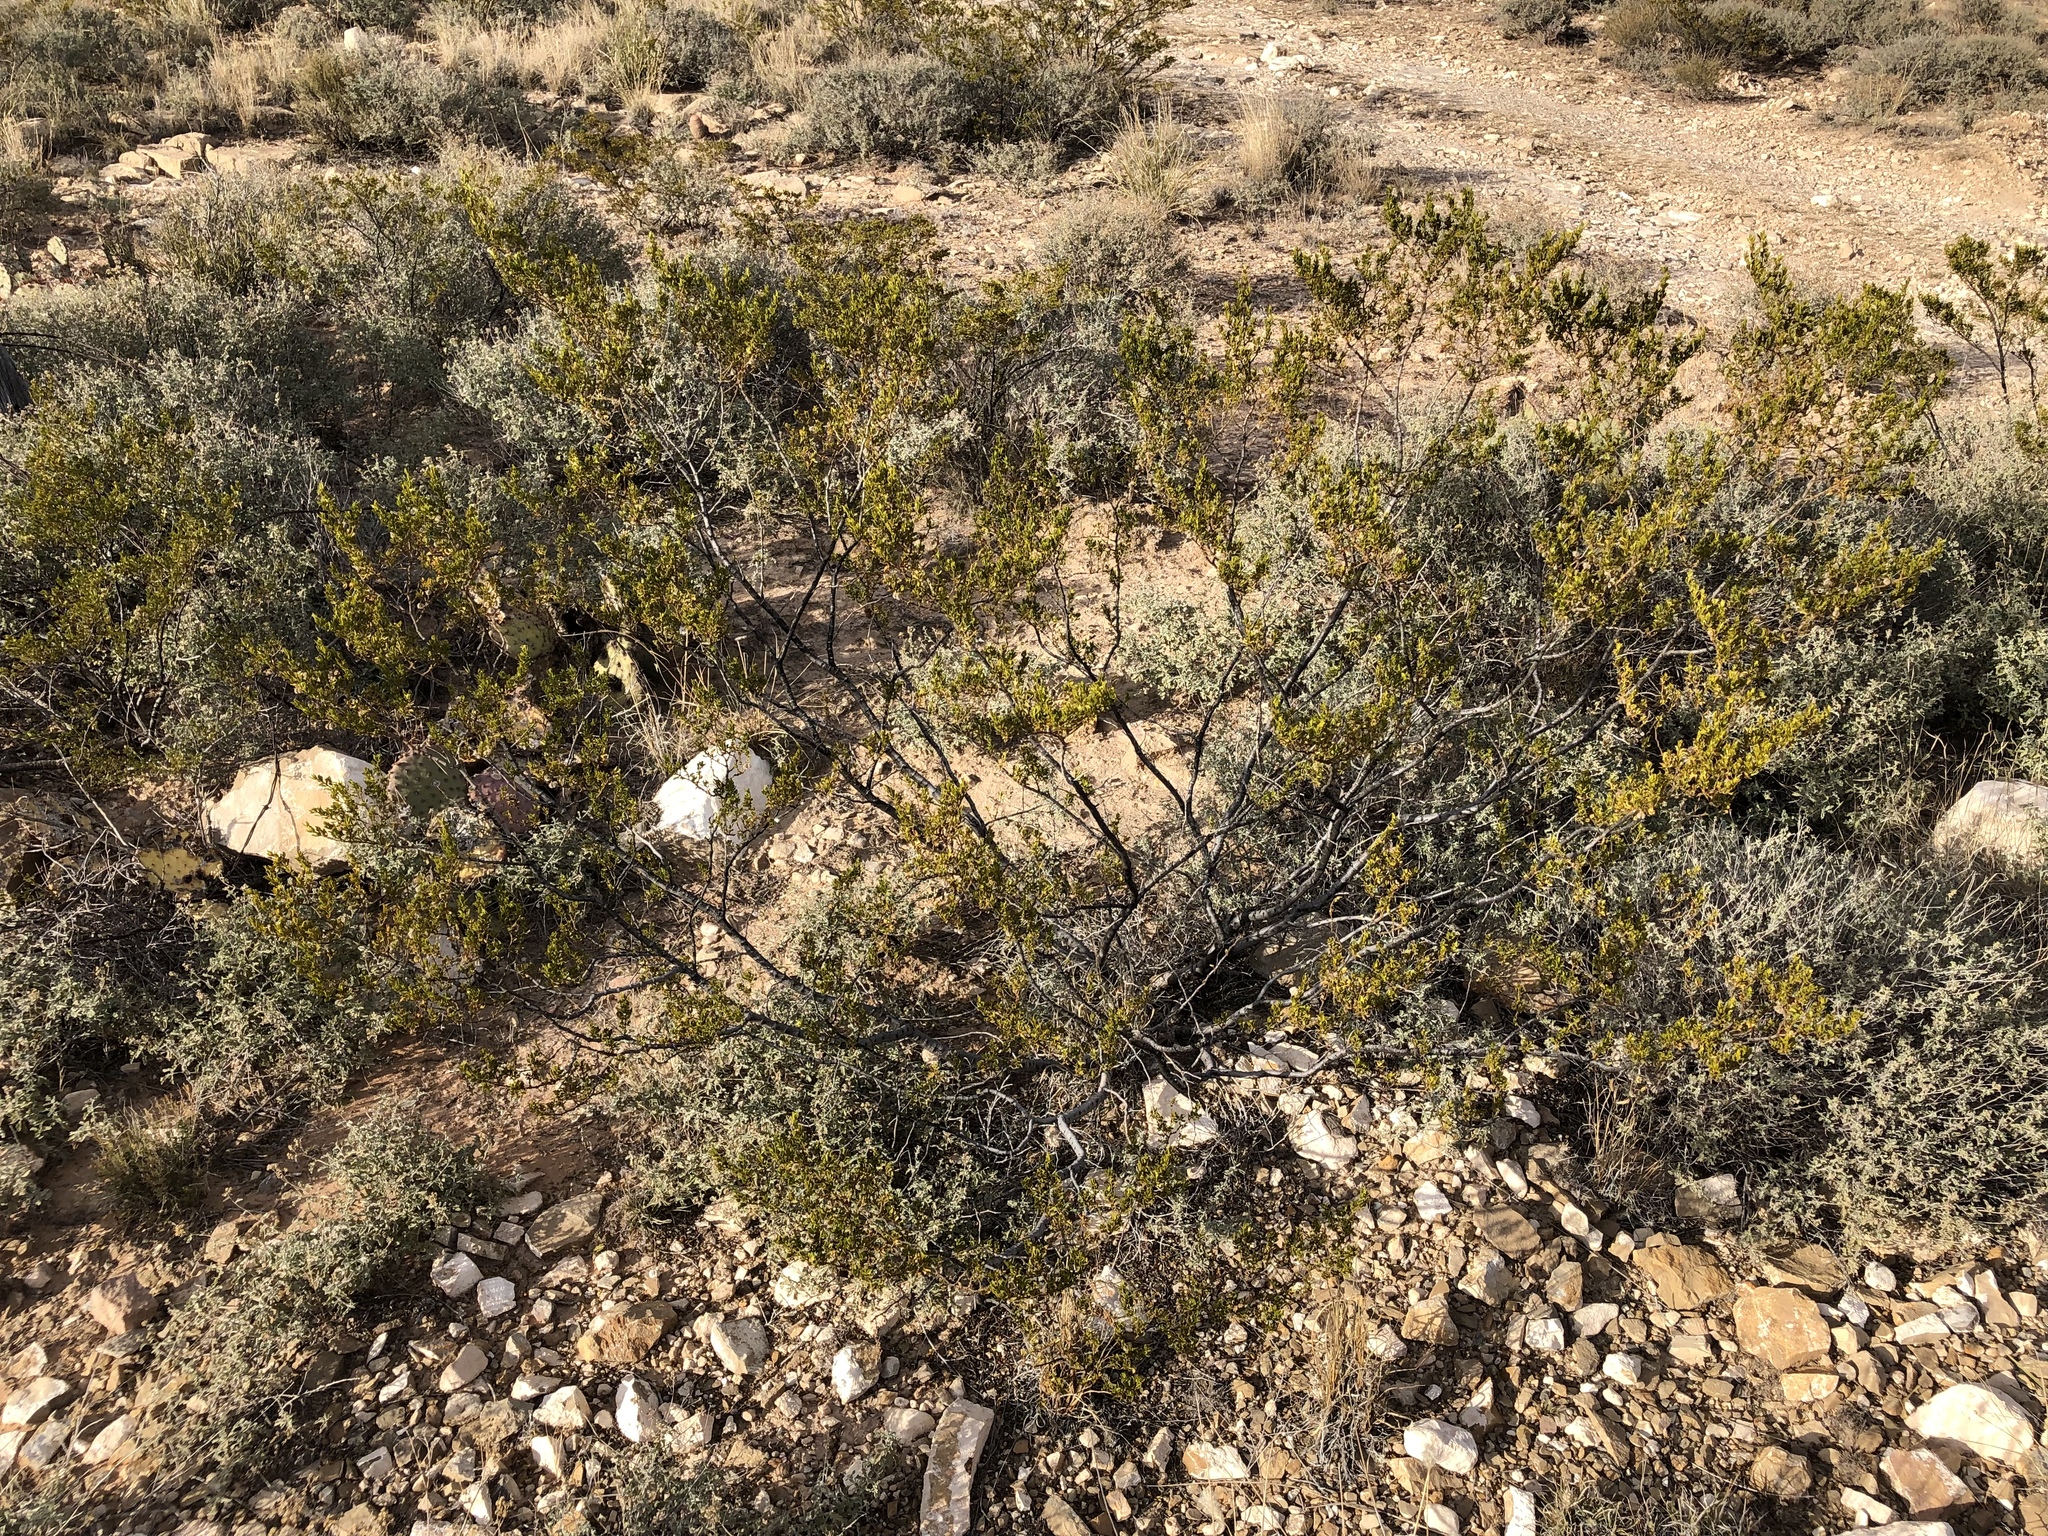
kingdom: Plantae
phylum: Tracheophyta
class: Magnoliopsida
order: Zygophyllales
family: Zygophyllaceae
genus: Larrea
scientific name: Larrea tridentata
